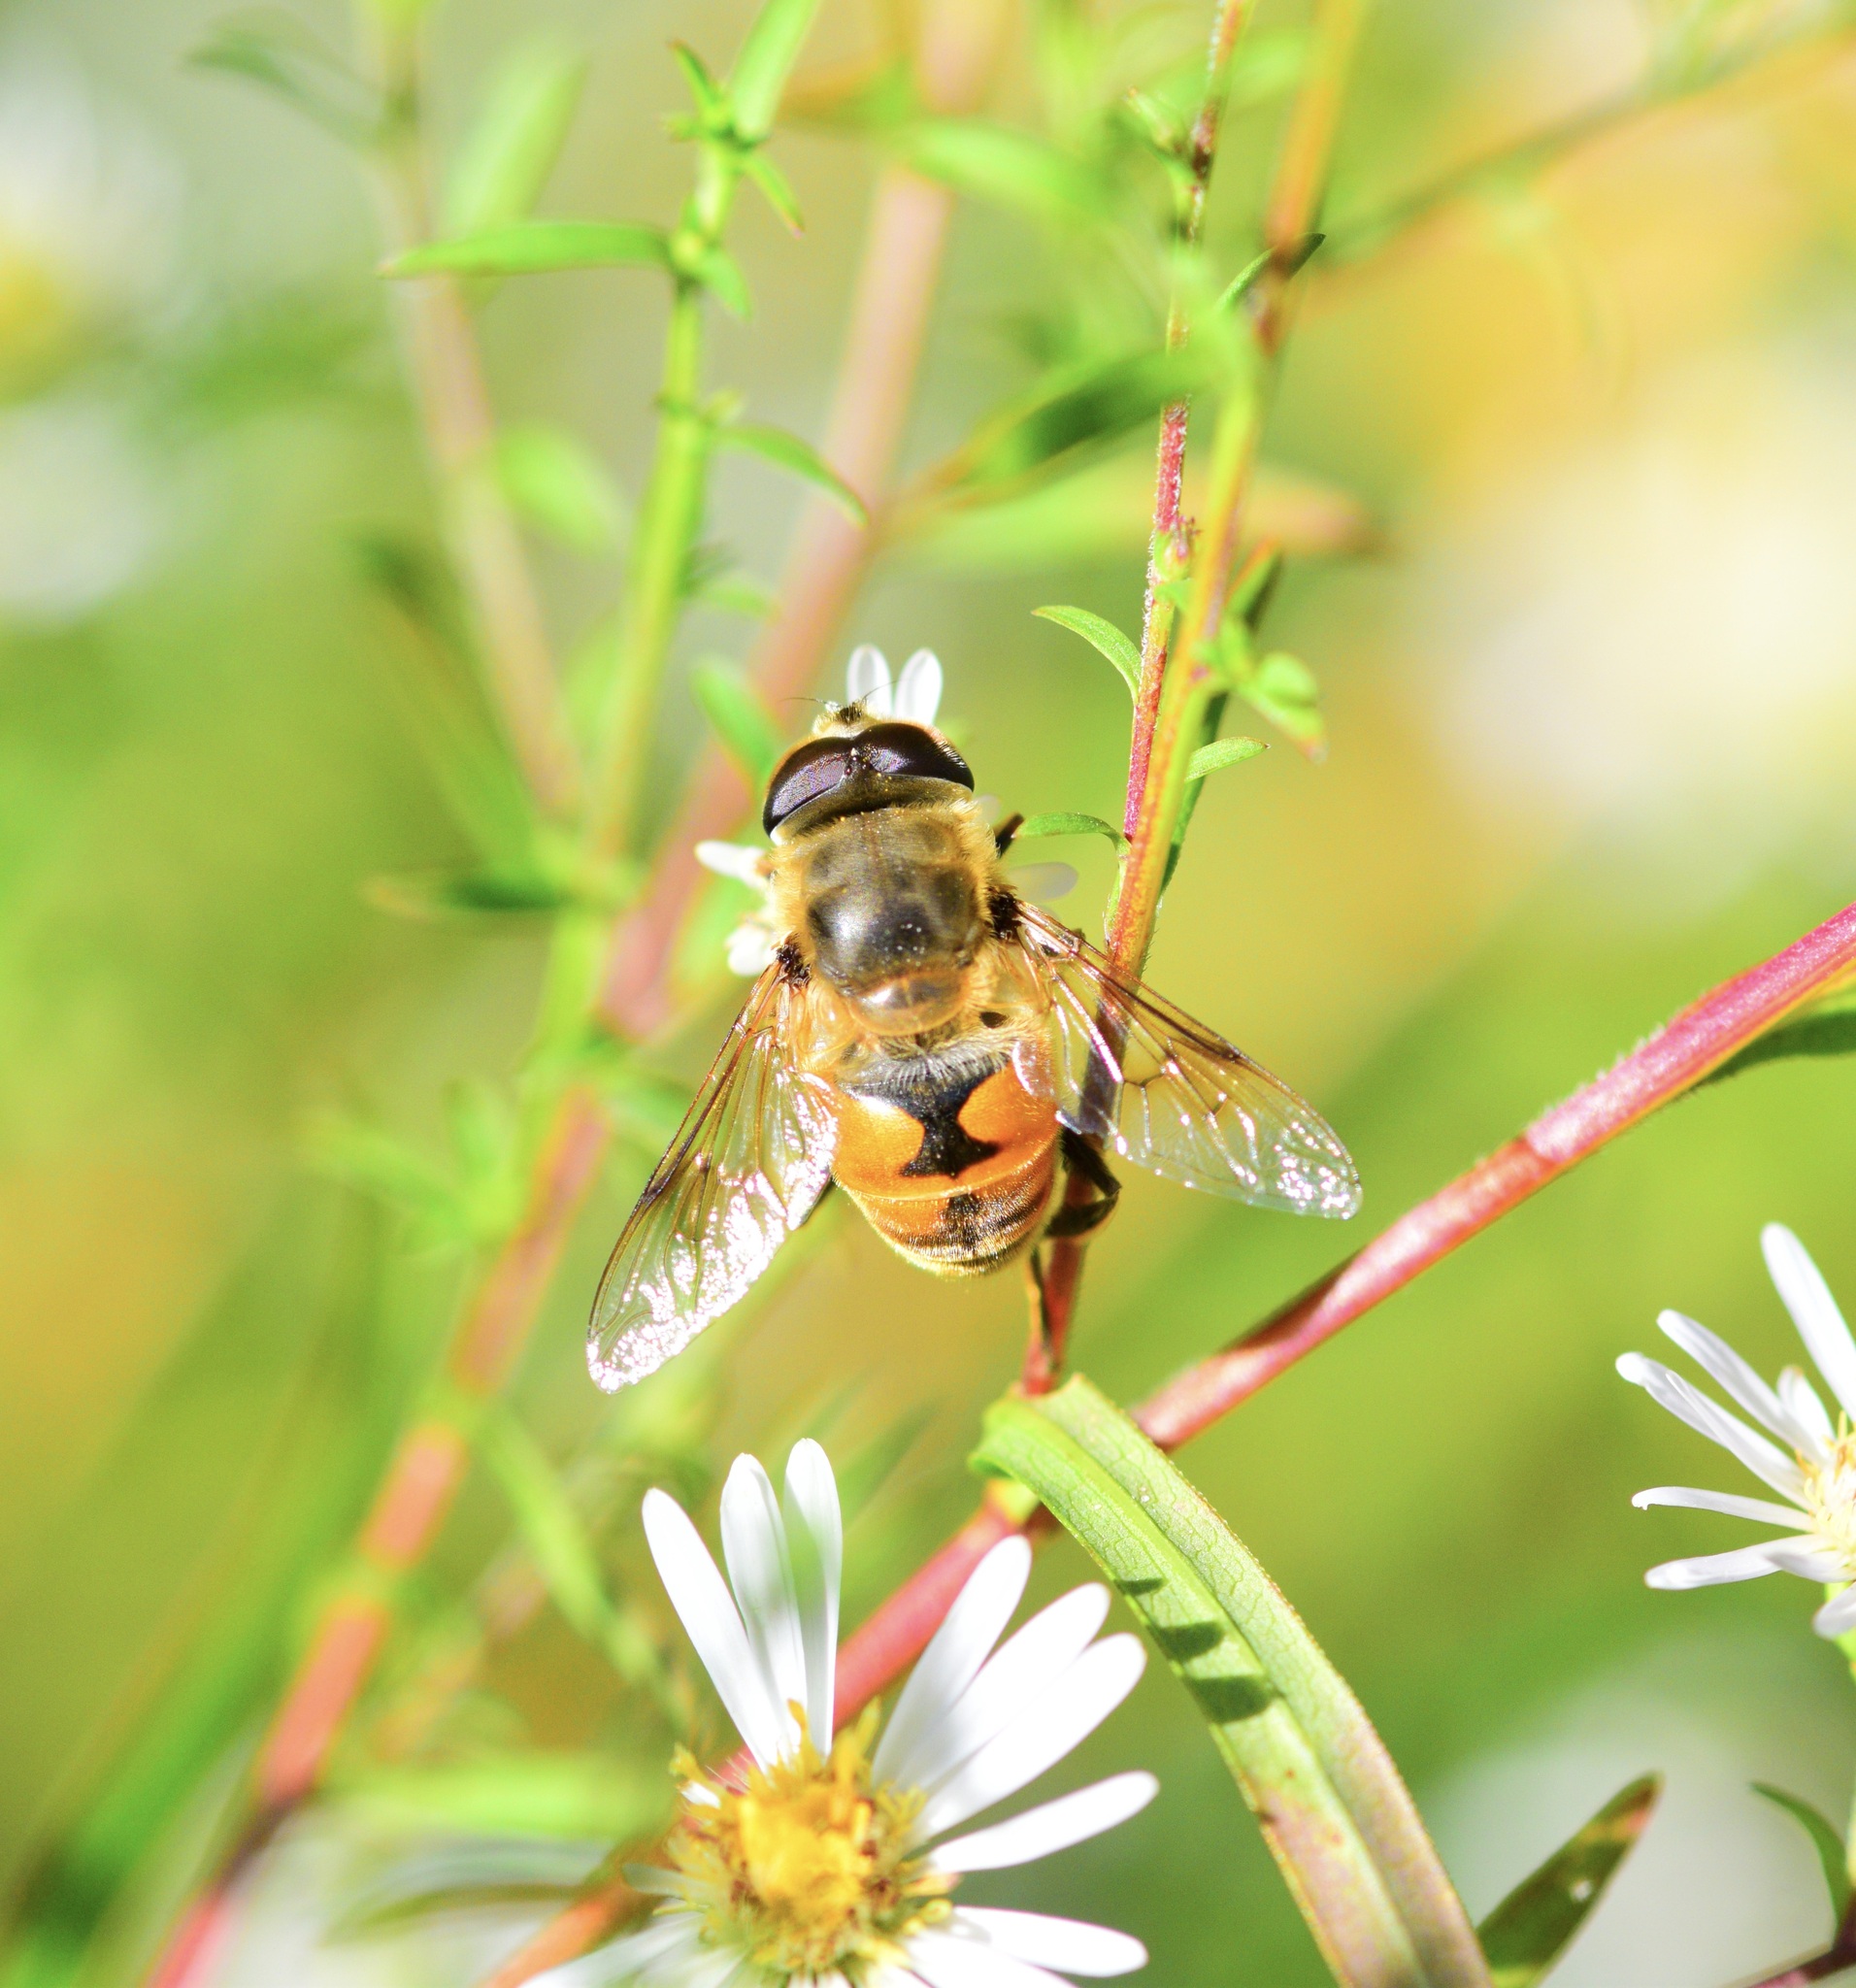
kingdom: Animalia
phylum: Arthropoda
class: Insecta
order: Diptera
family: Syrphidae
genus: Eristalis
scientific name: Eristalis tenax
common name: Drone fly
